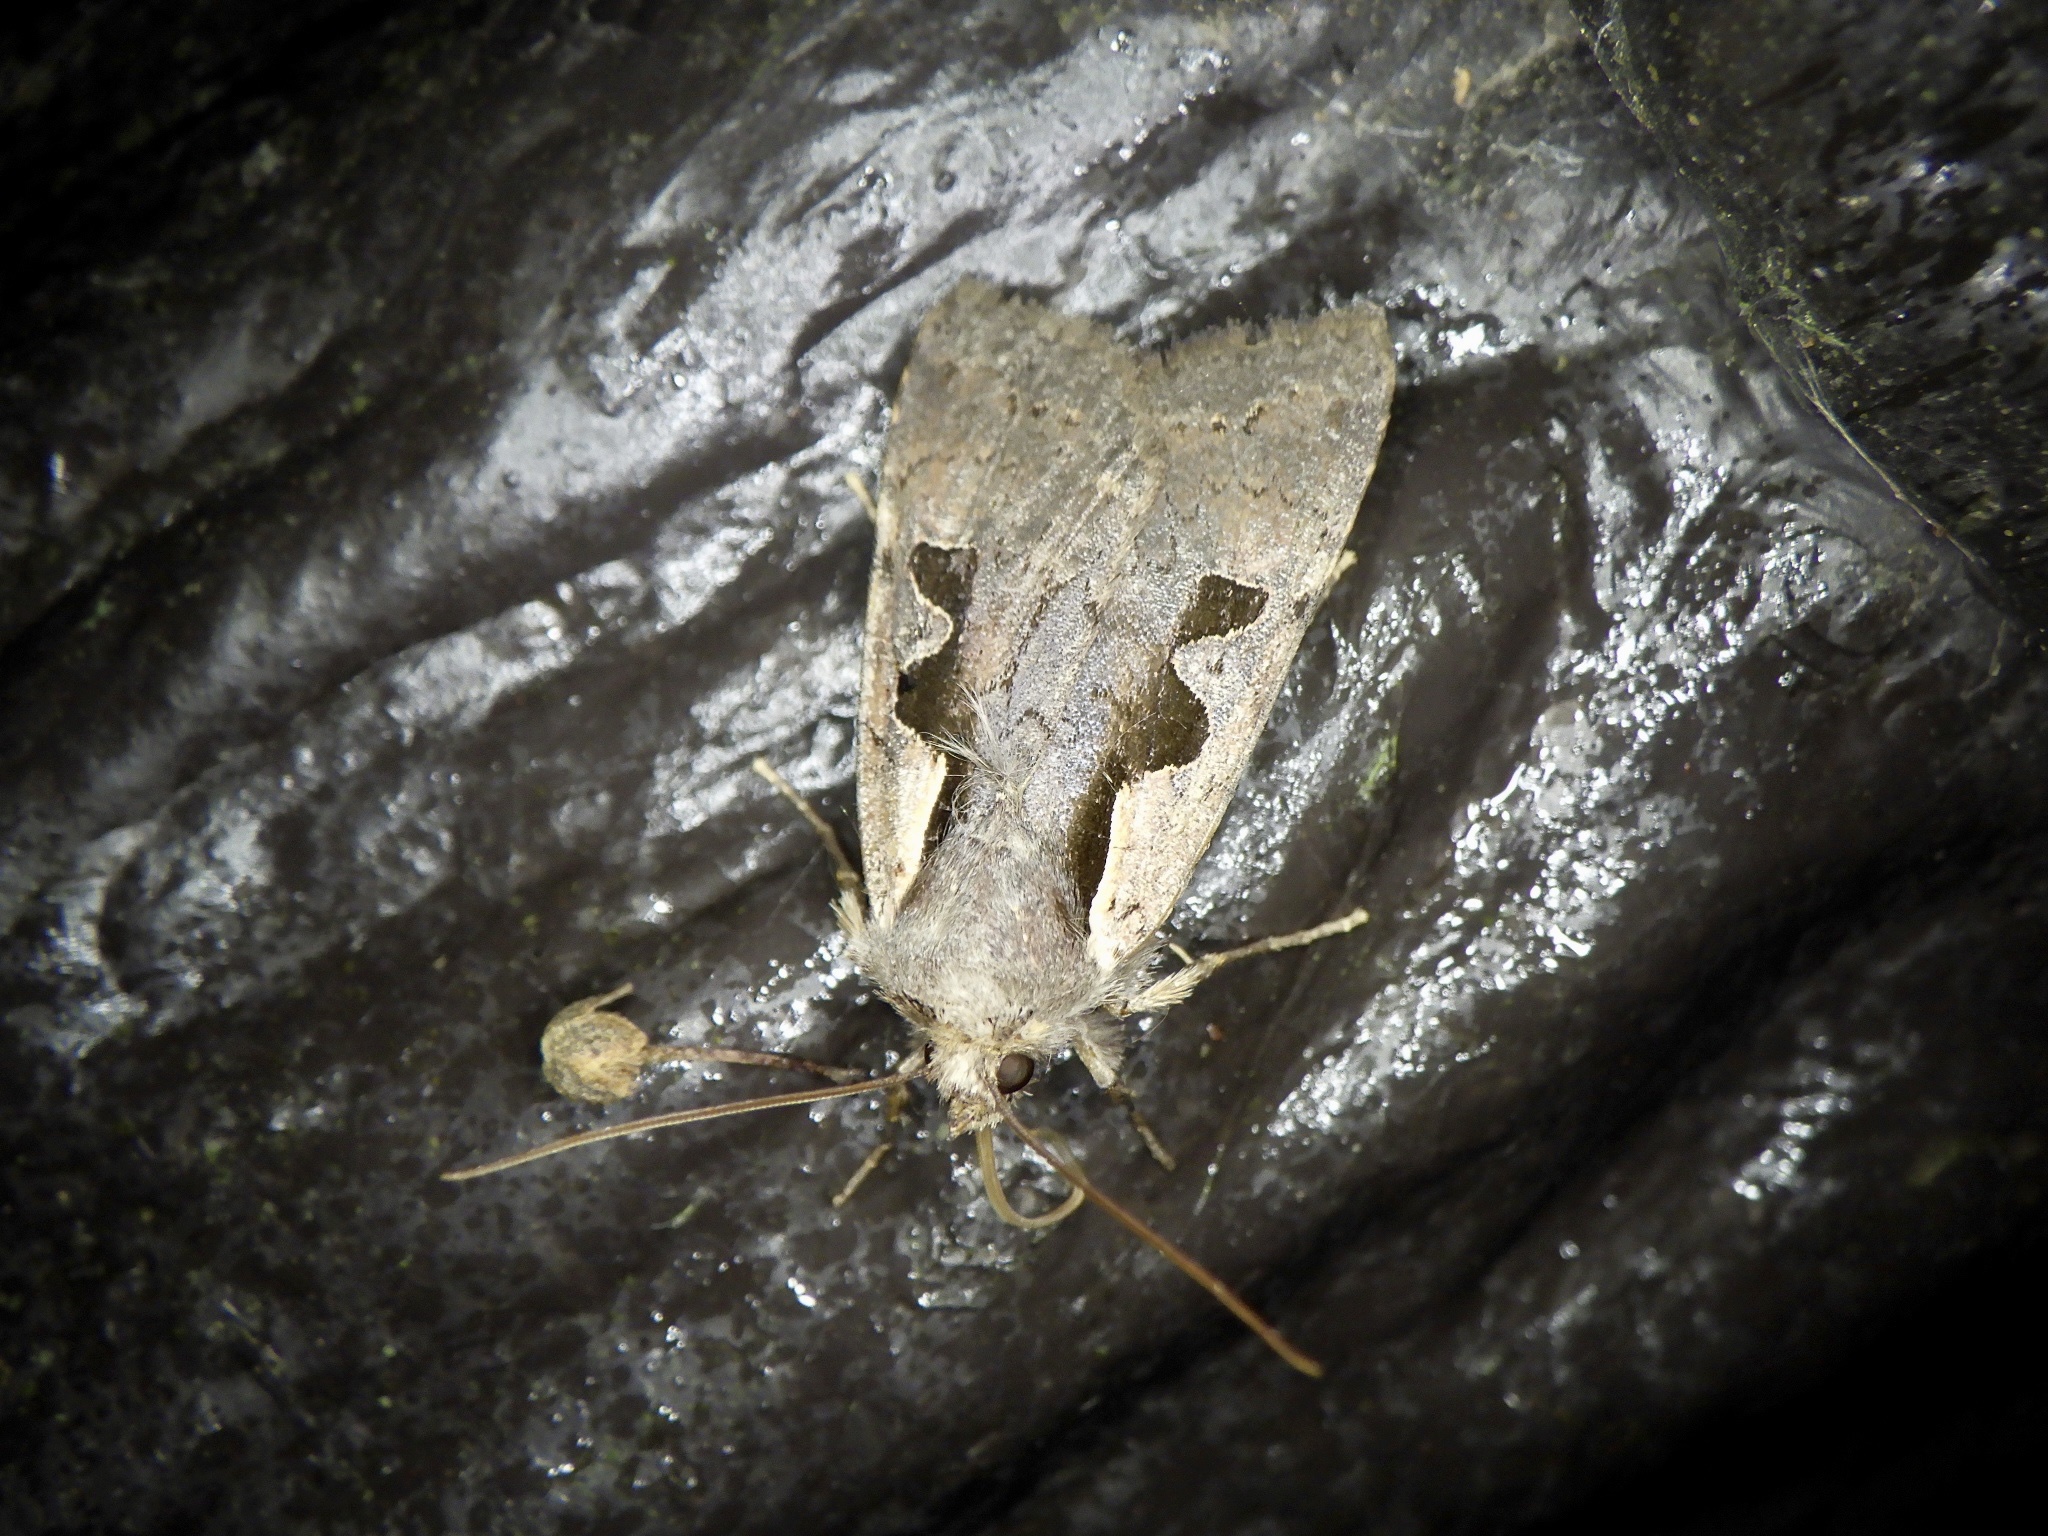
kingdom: Animalia
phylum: Arthropoda
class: Insecta
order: Lepidoptera
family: Noctuidae
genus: Sugitania
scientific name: Sugitania lepida
